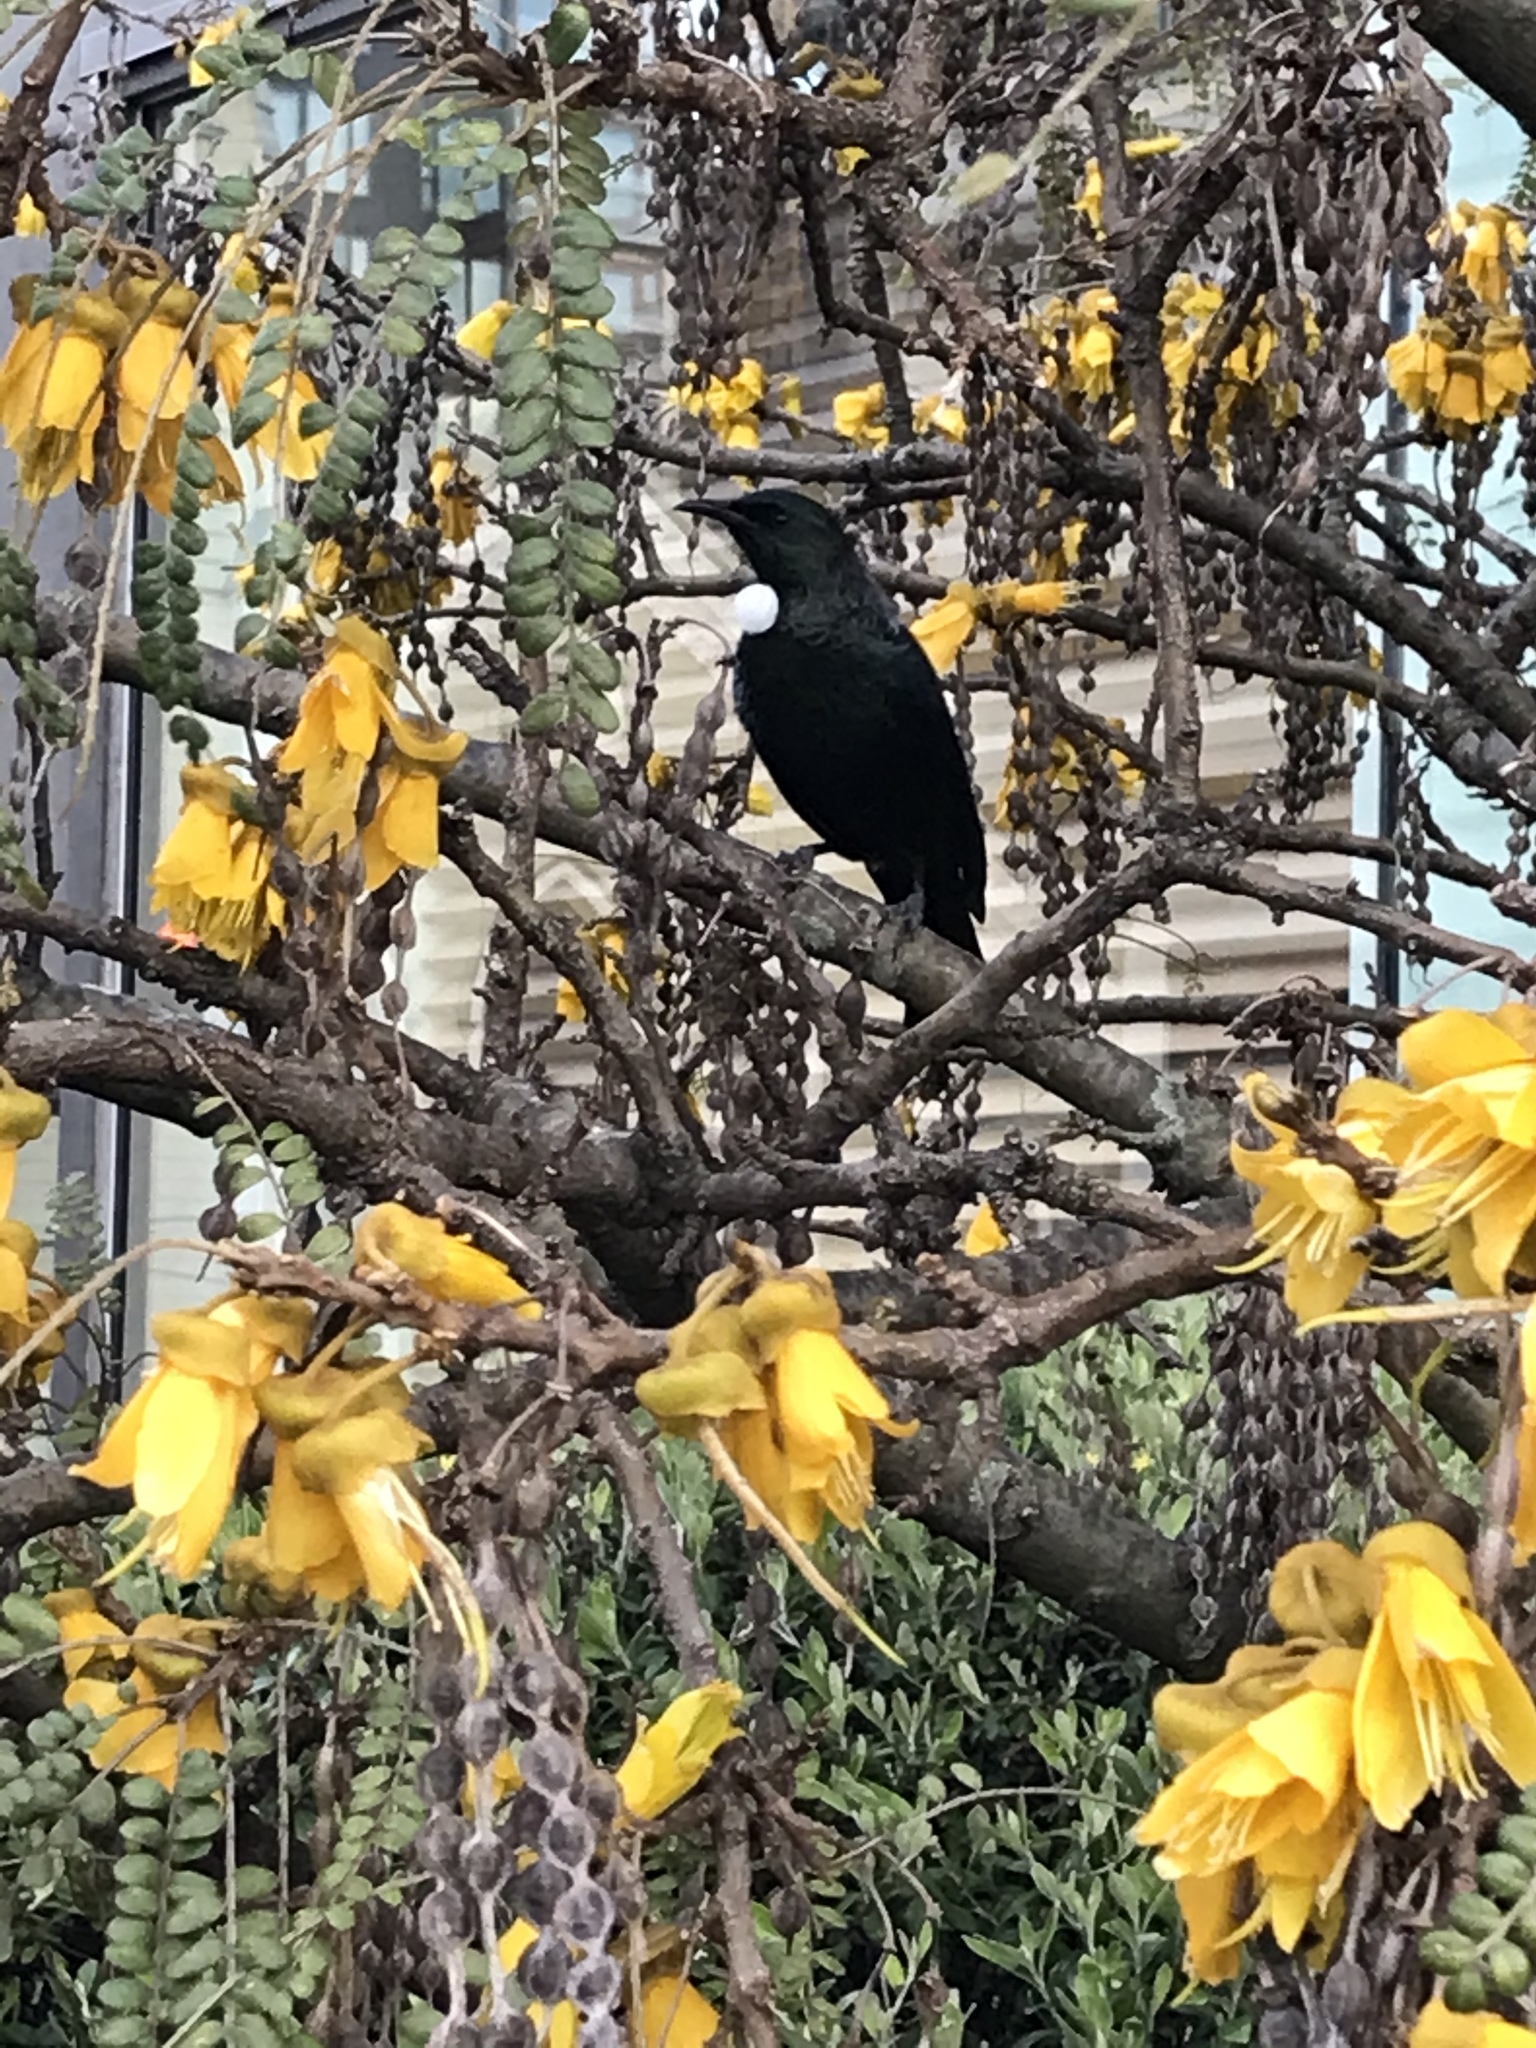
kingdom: Animalia
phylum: Chordata
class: Aves
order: Passeriformes
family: Meliphagidae
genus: Prosthemadera
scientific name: Prosthemadera novaeseelandiae
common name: Tui
